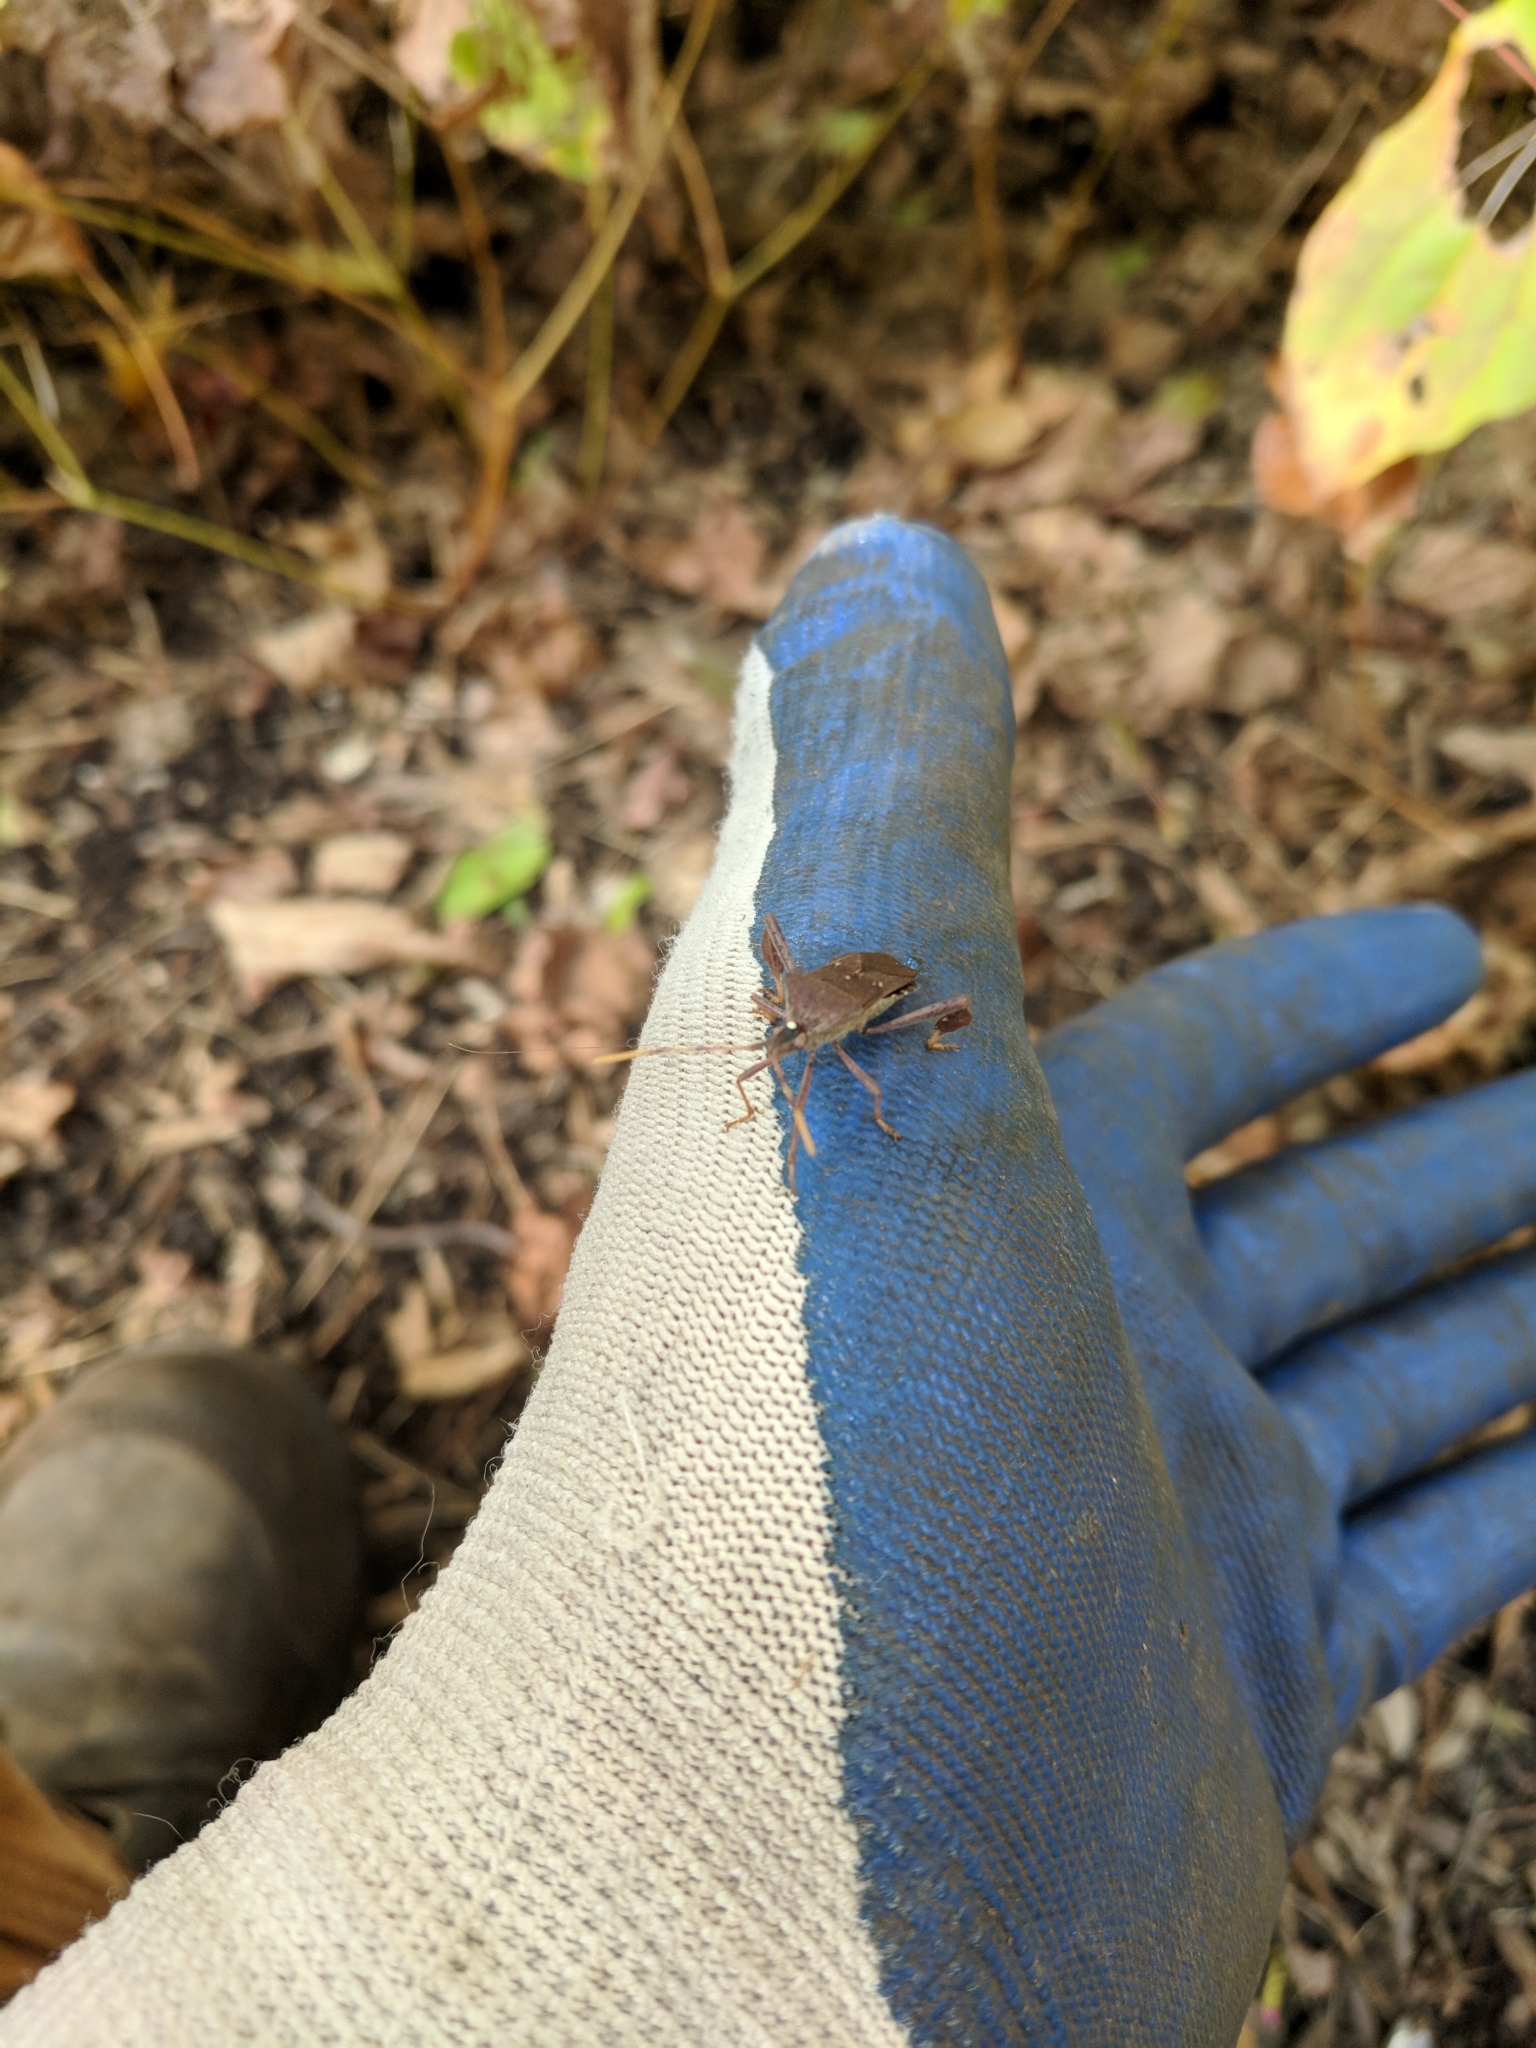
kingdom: Animalia
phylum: Arthropoda
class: Insecta
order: Hemiptera
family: Coreidae
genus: Leptoglossus
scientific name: Leptoglossus oppositus
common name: Northern leaf-footed bug
